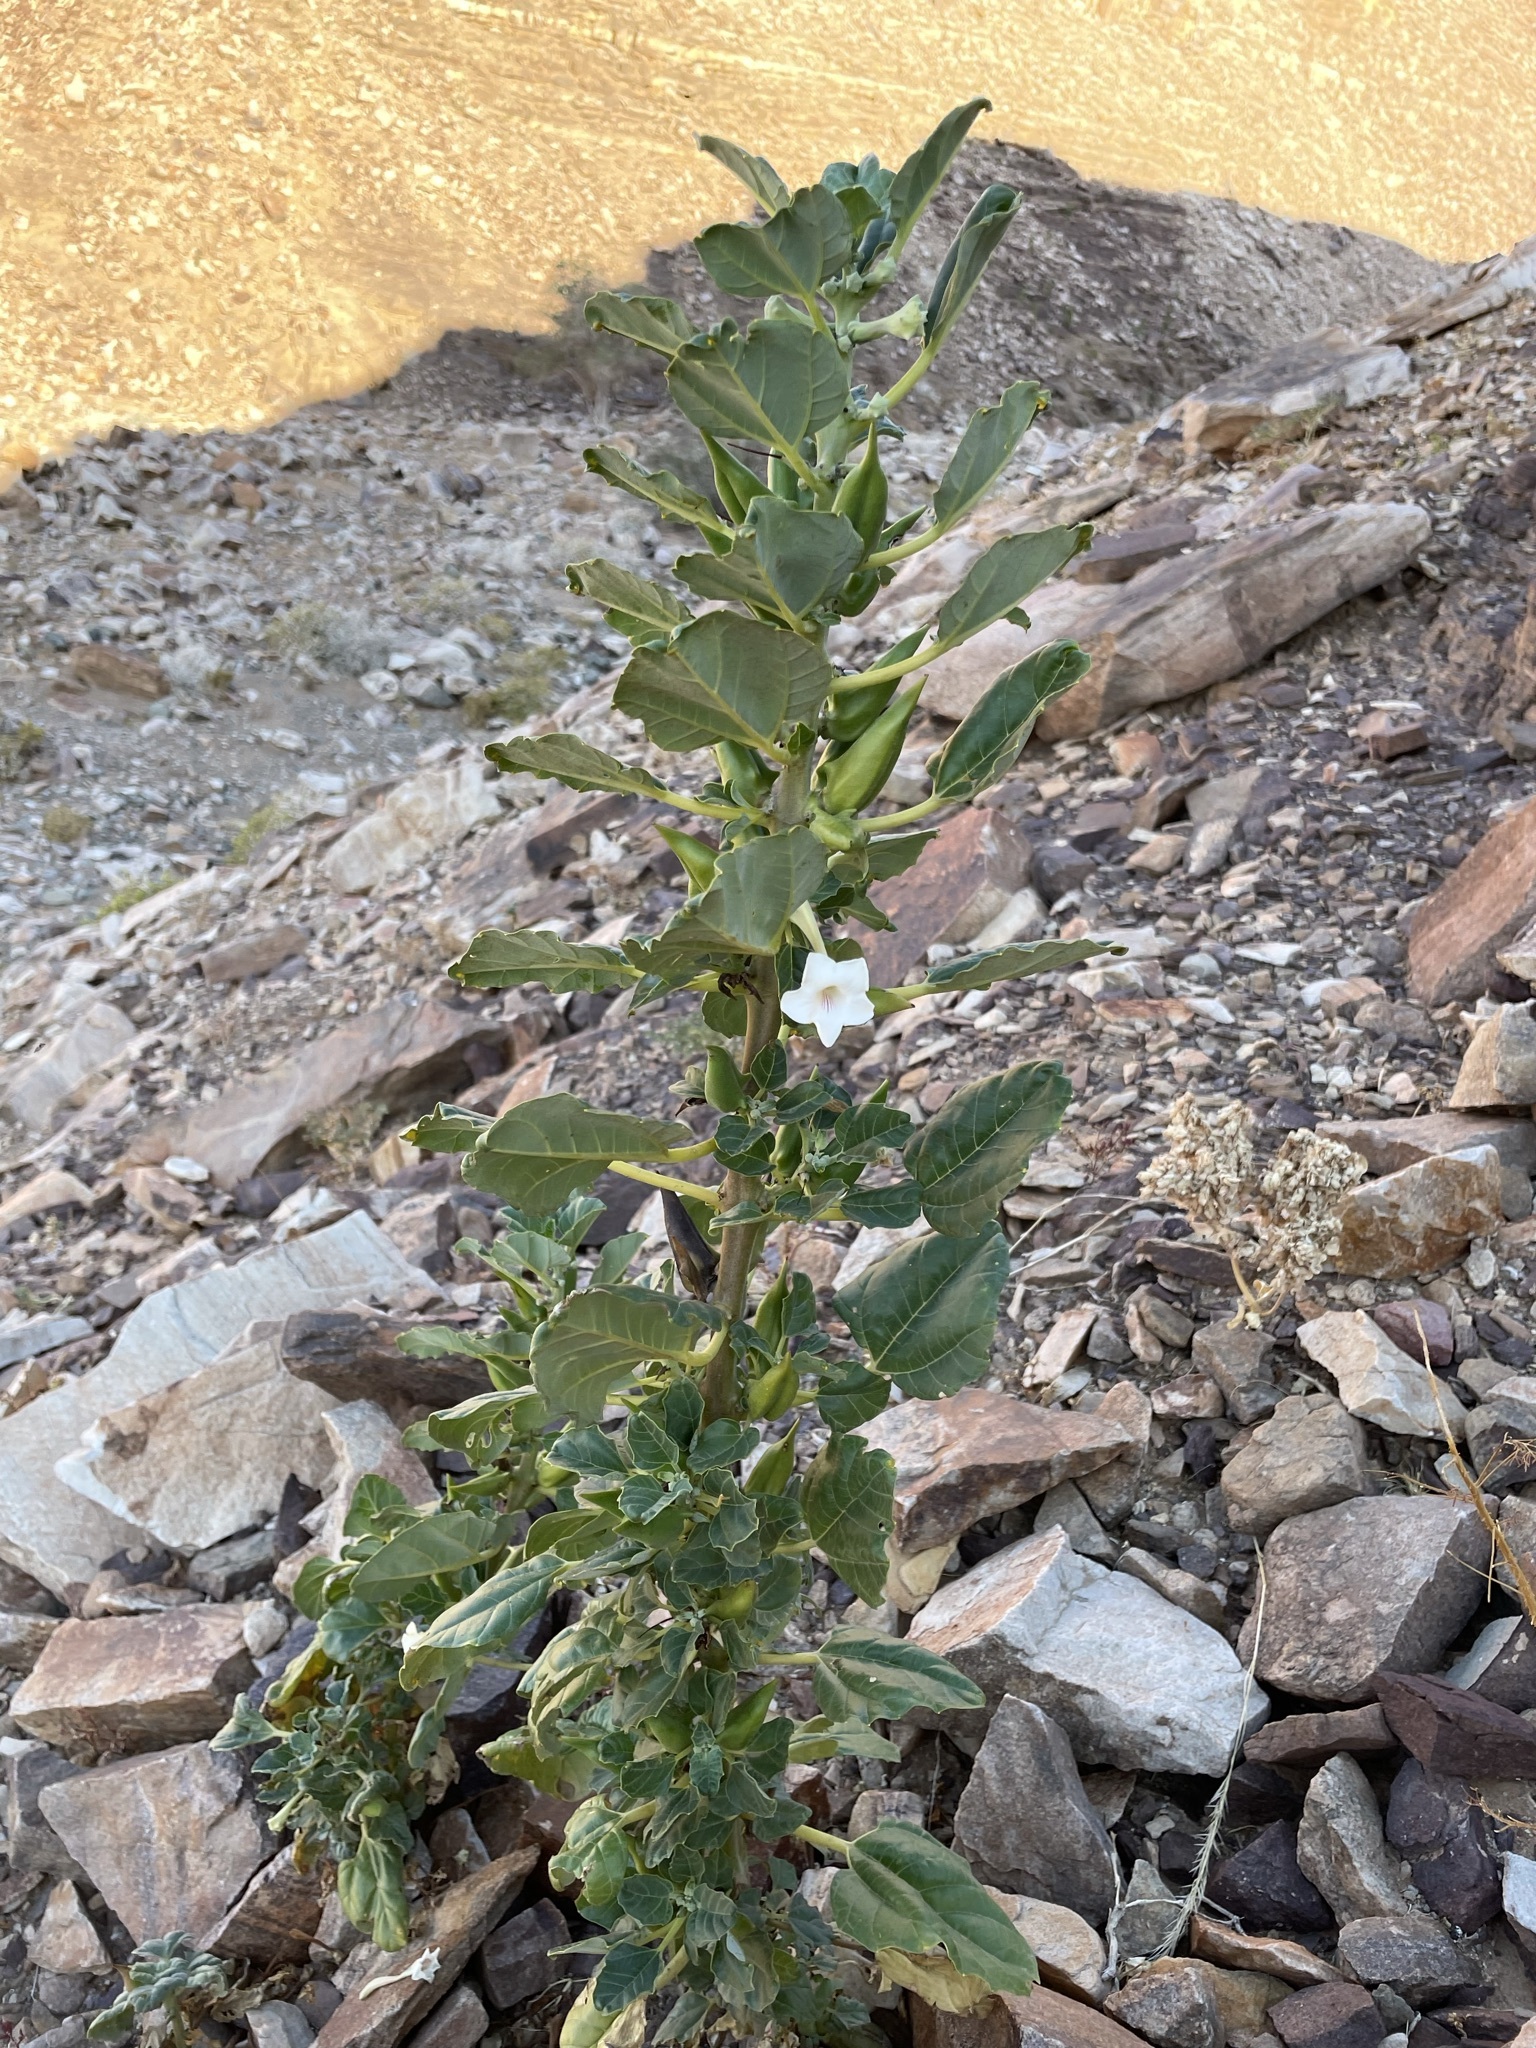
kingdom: Plantae
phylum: Tracheophyta
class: Magnoliopsida
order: Lamiales
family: Pedaliaceae
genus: Rogeria
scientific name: Rogeria longiflora
